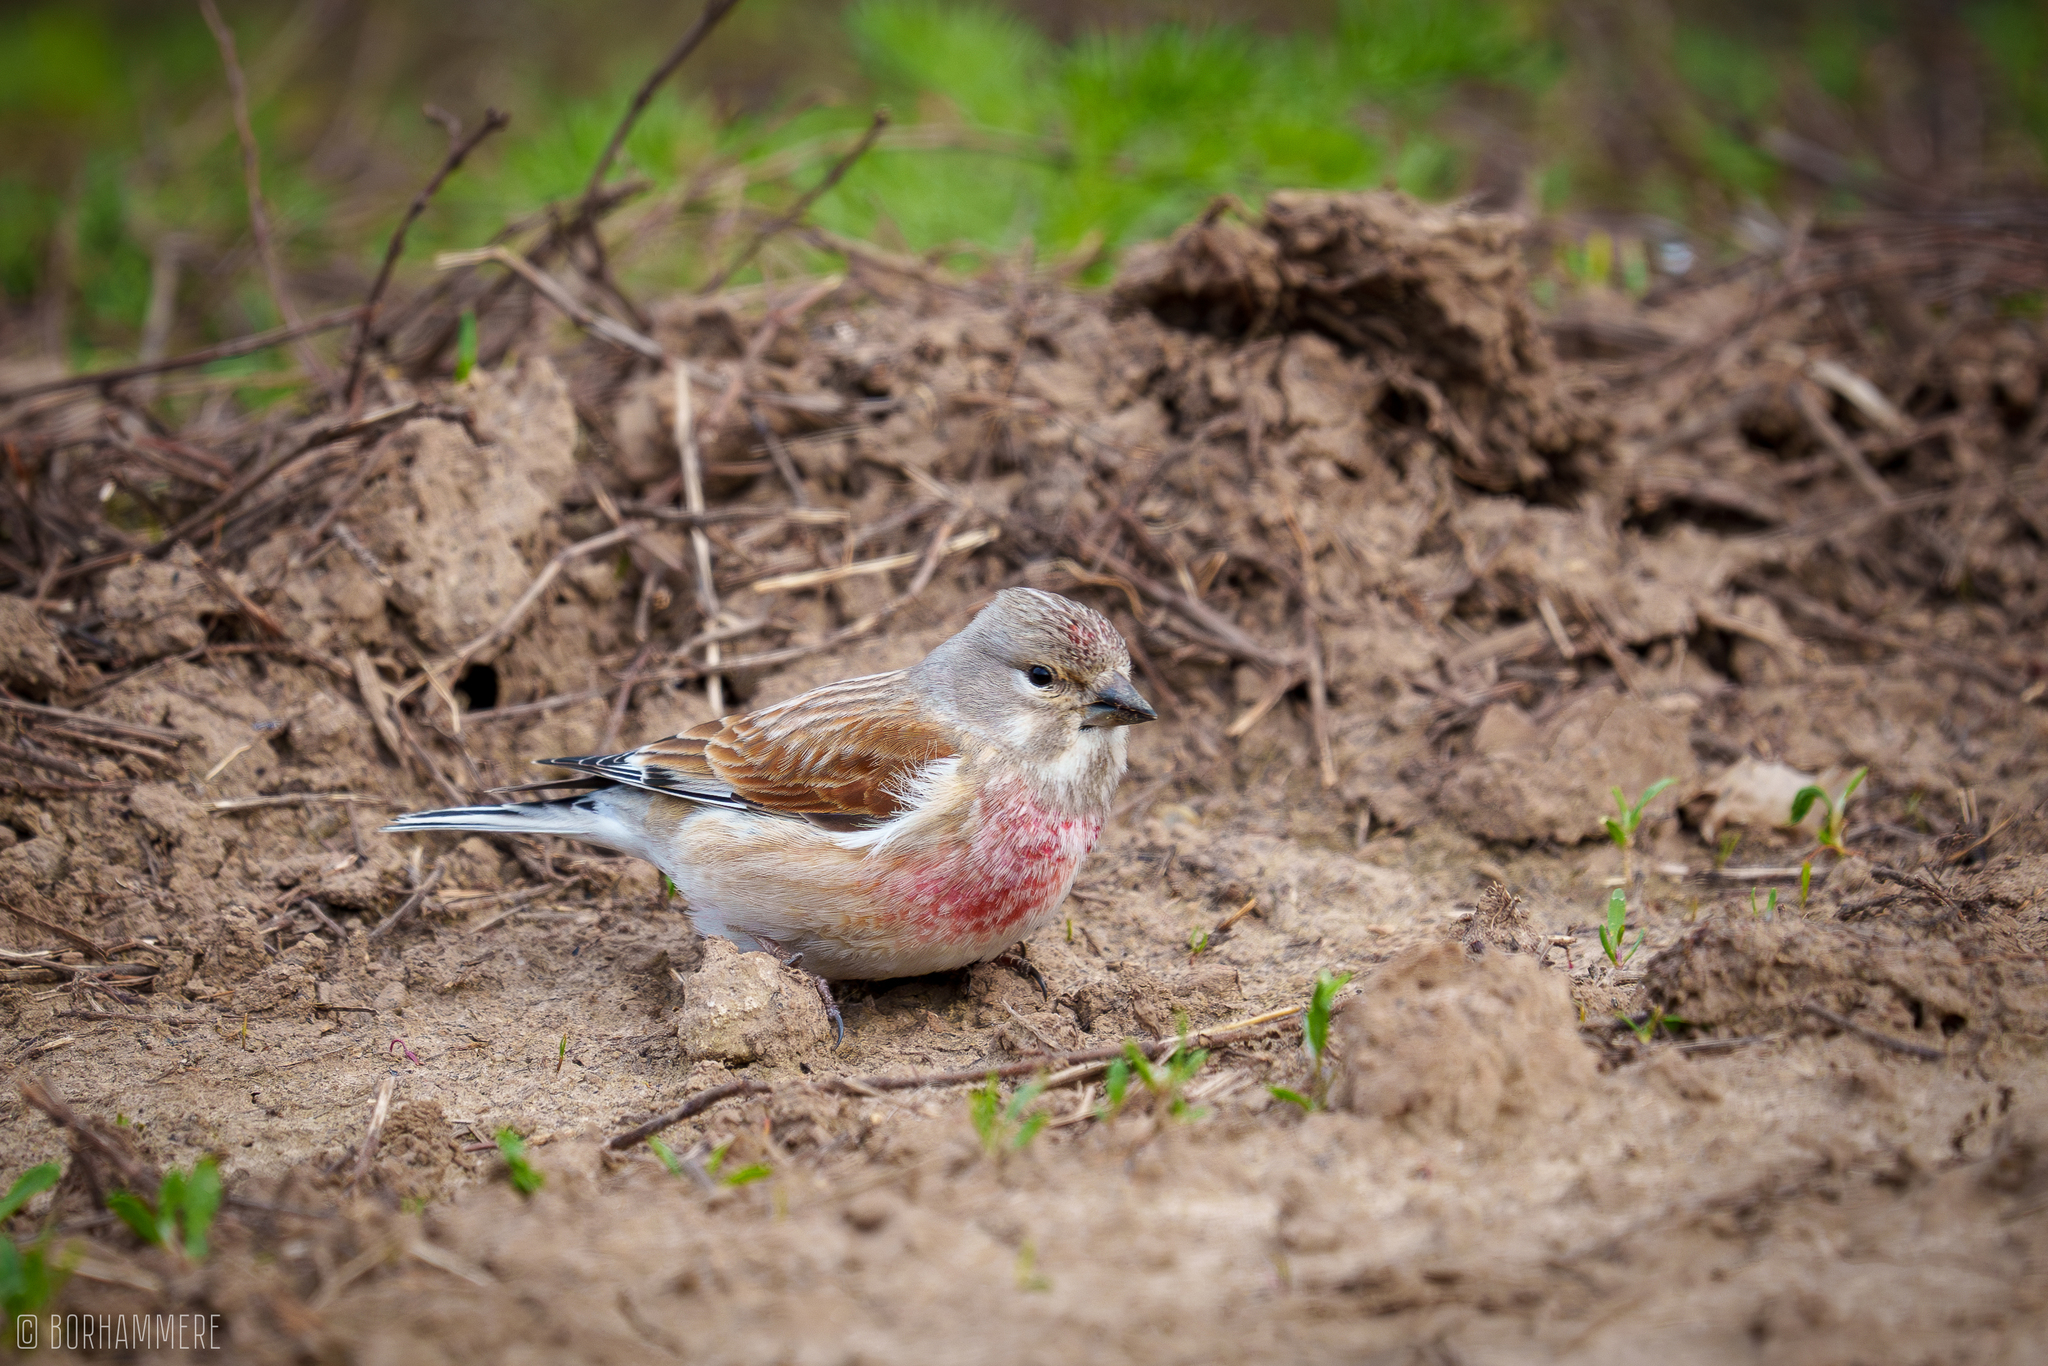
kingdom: Animalia
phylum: Chordata
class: Aves
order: Passeriformes
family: Fringillidae
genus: Linaria
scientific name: Linaria cannabina
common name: Common linnet
